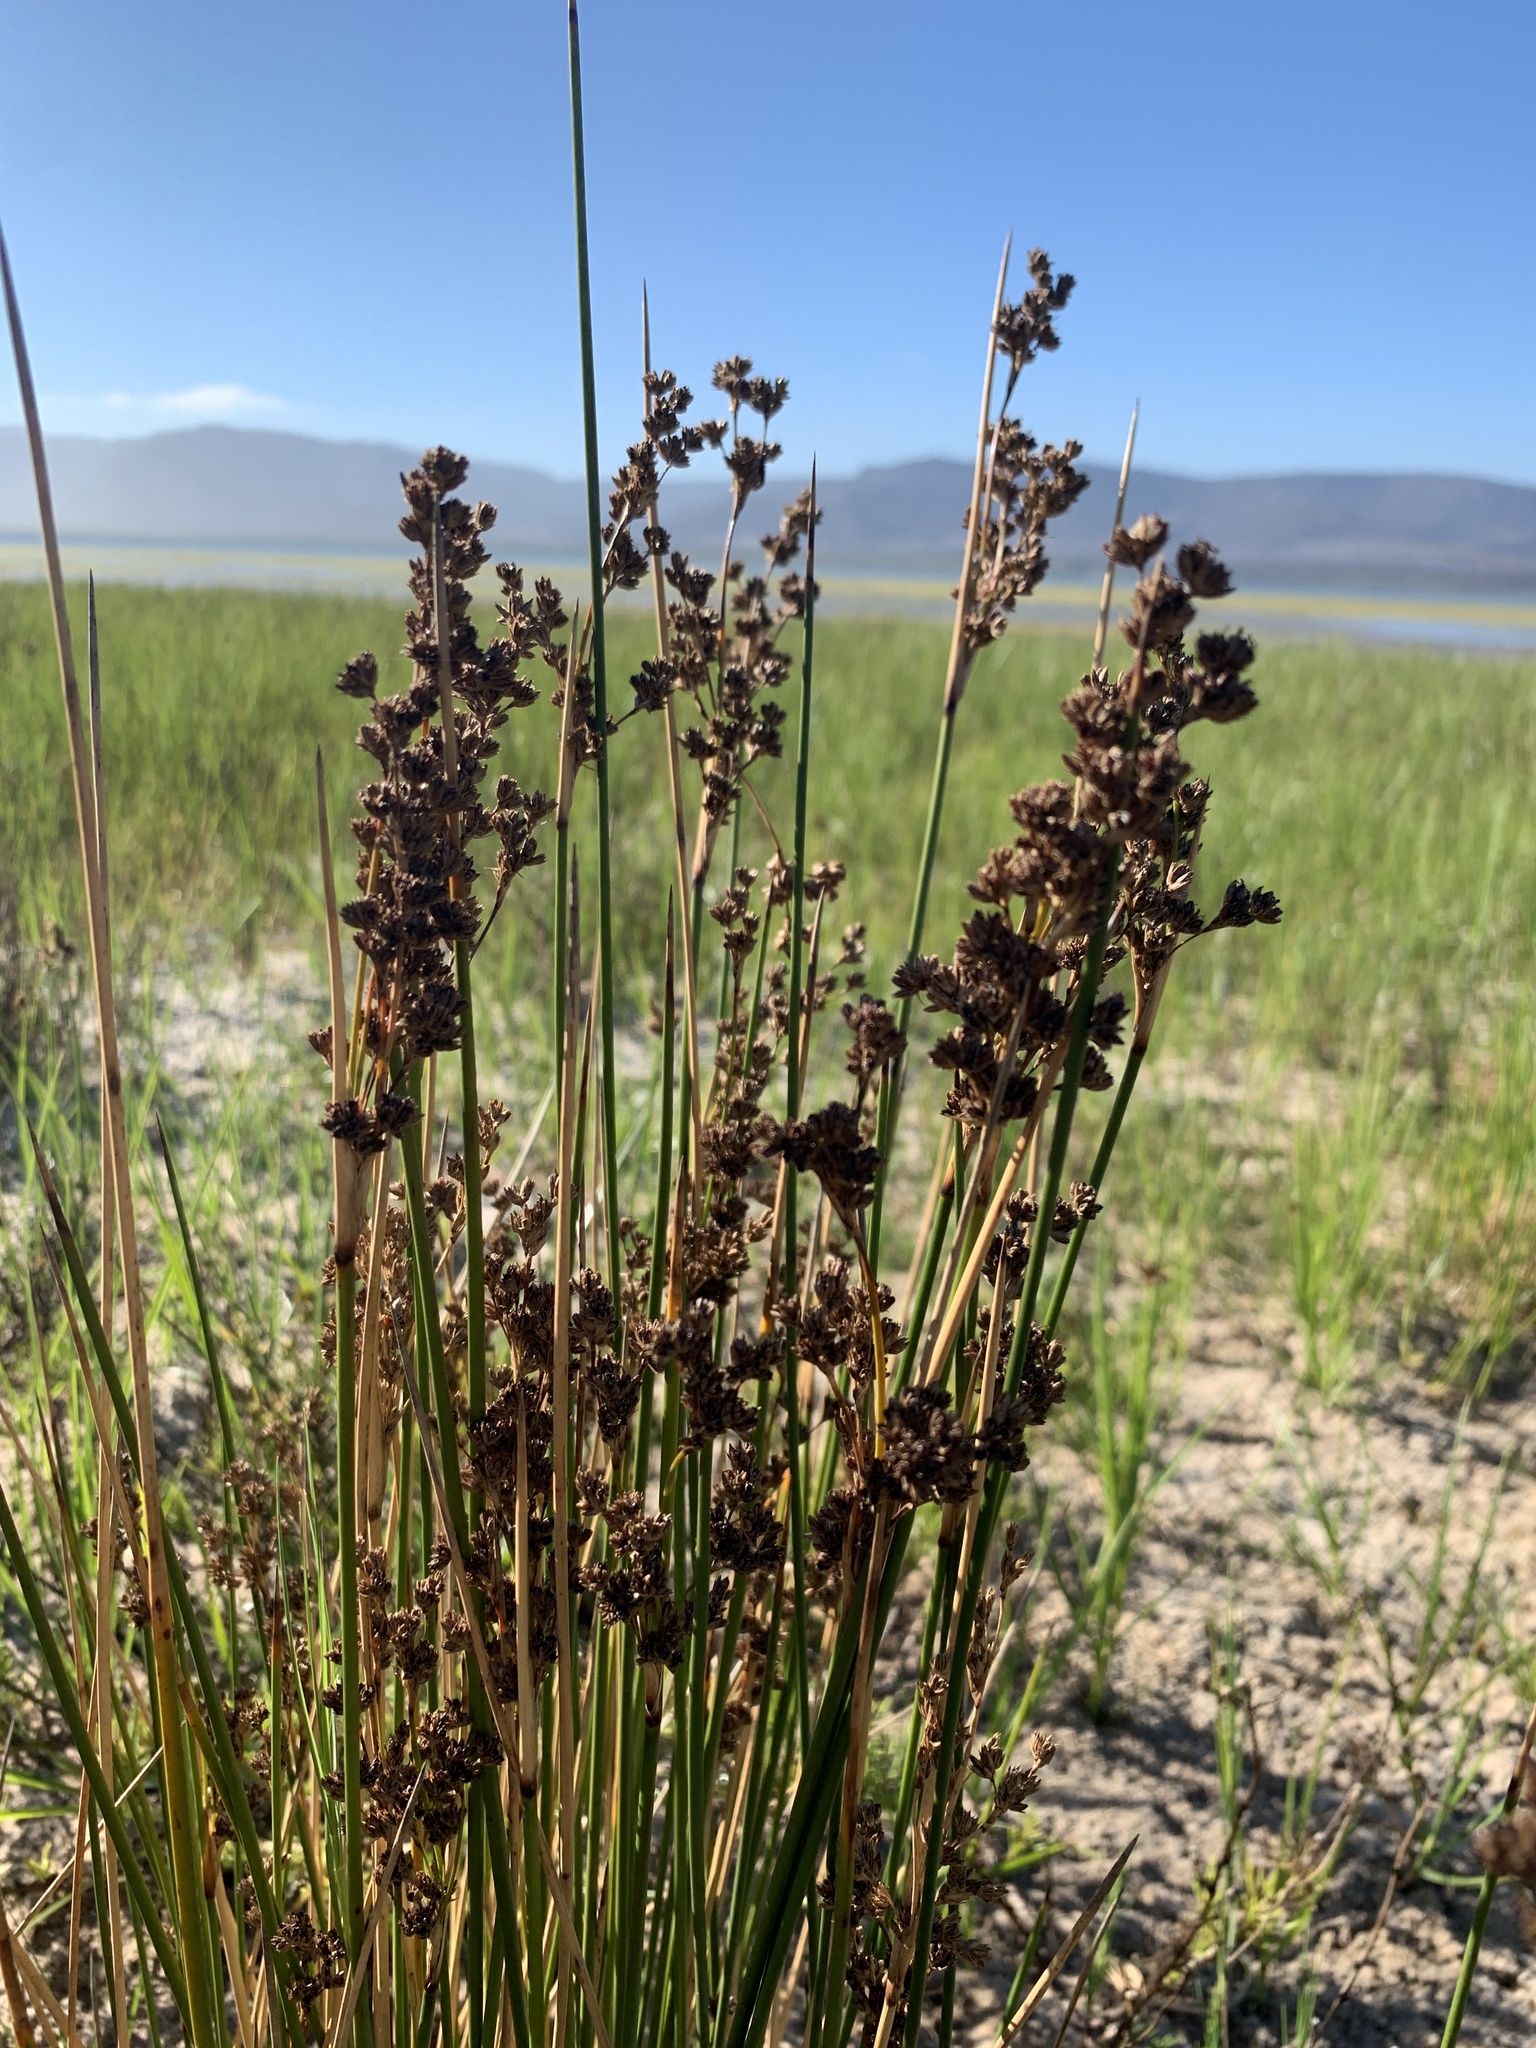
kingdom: Plantae
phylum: Tracheophyta
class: Liliopsida
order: Poales
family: Juncaceae
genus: Juncus
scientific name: Juncus kraussii
